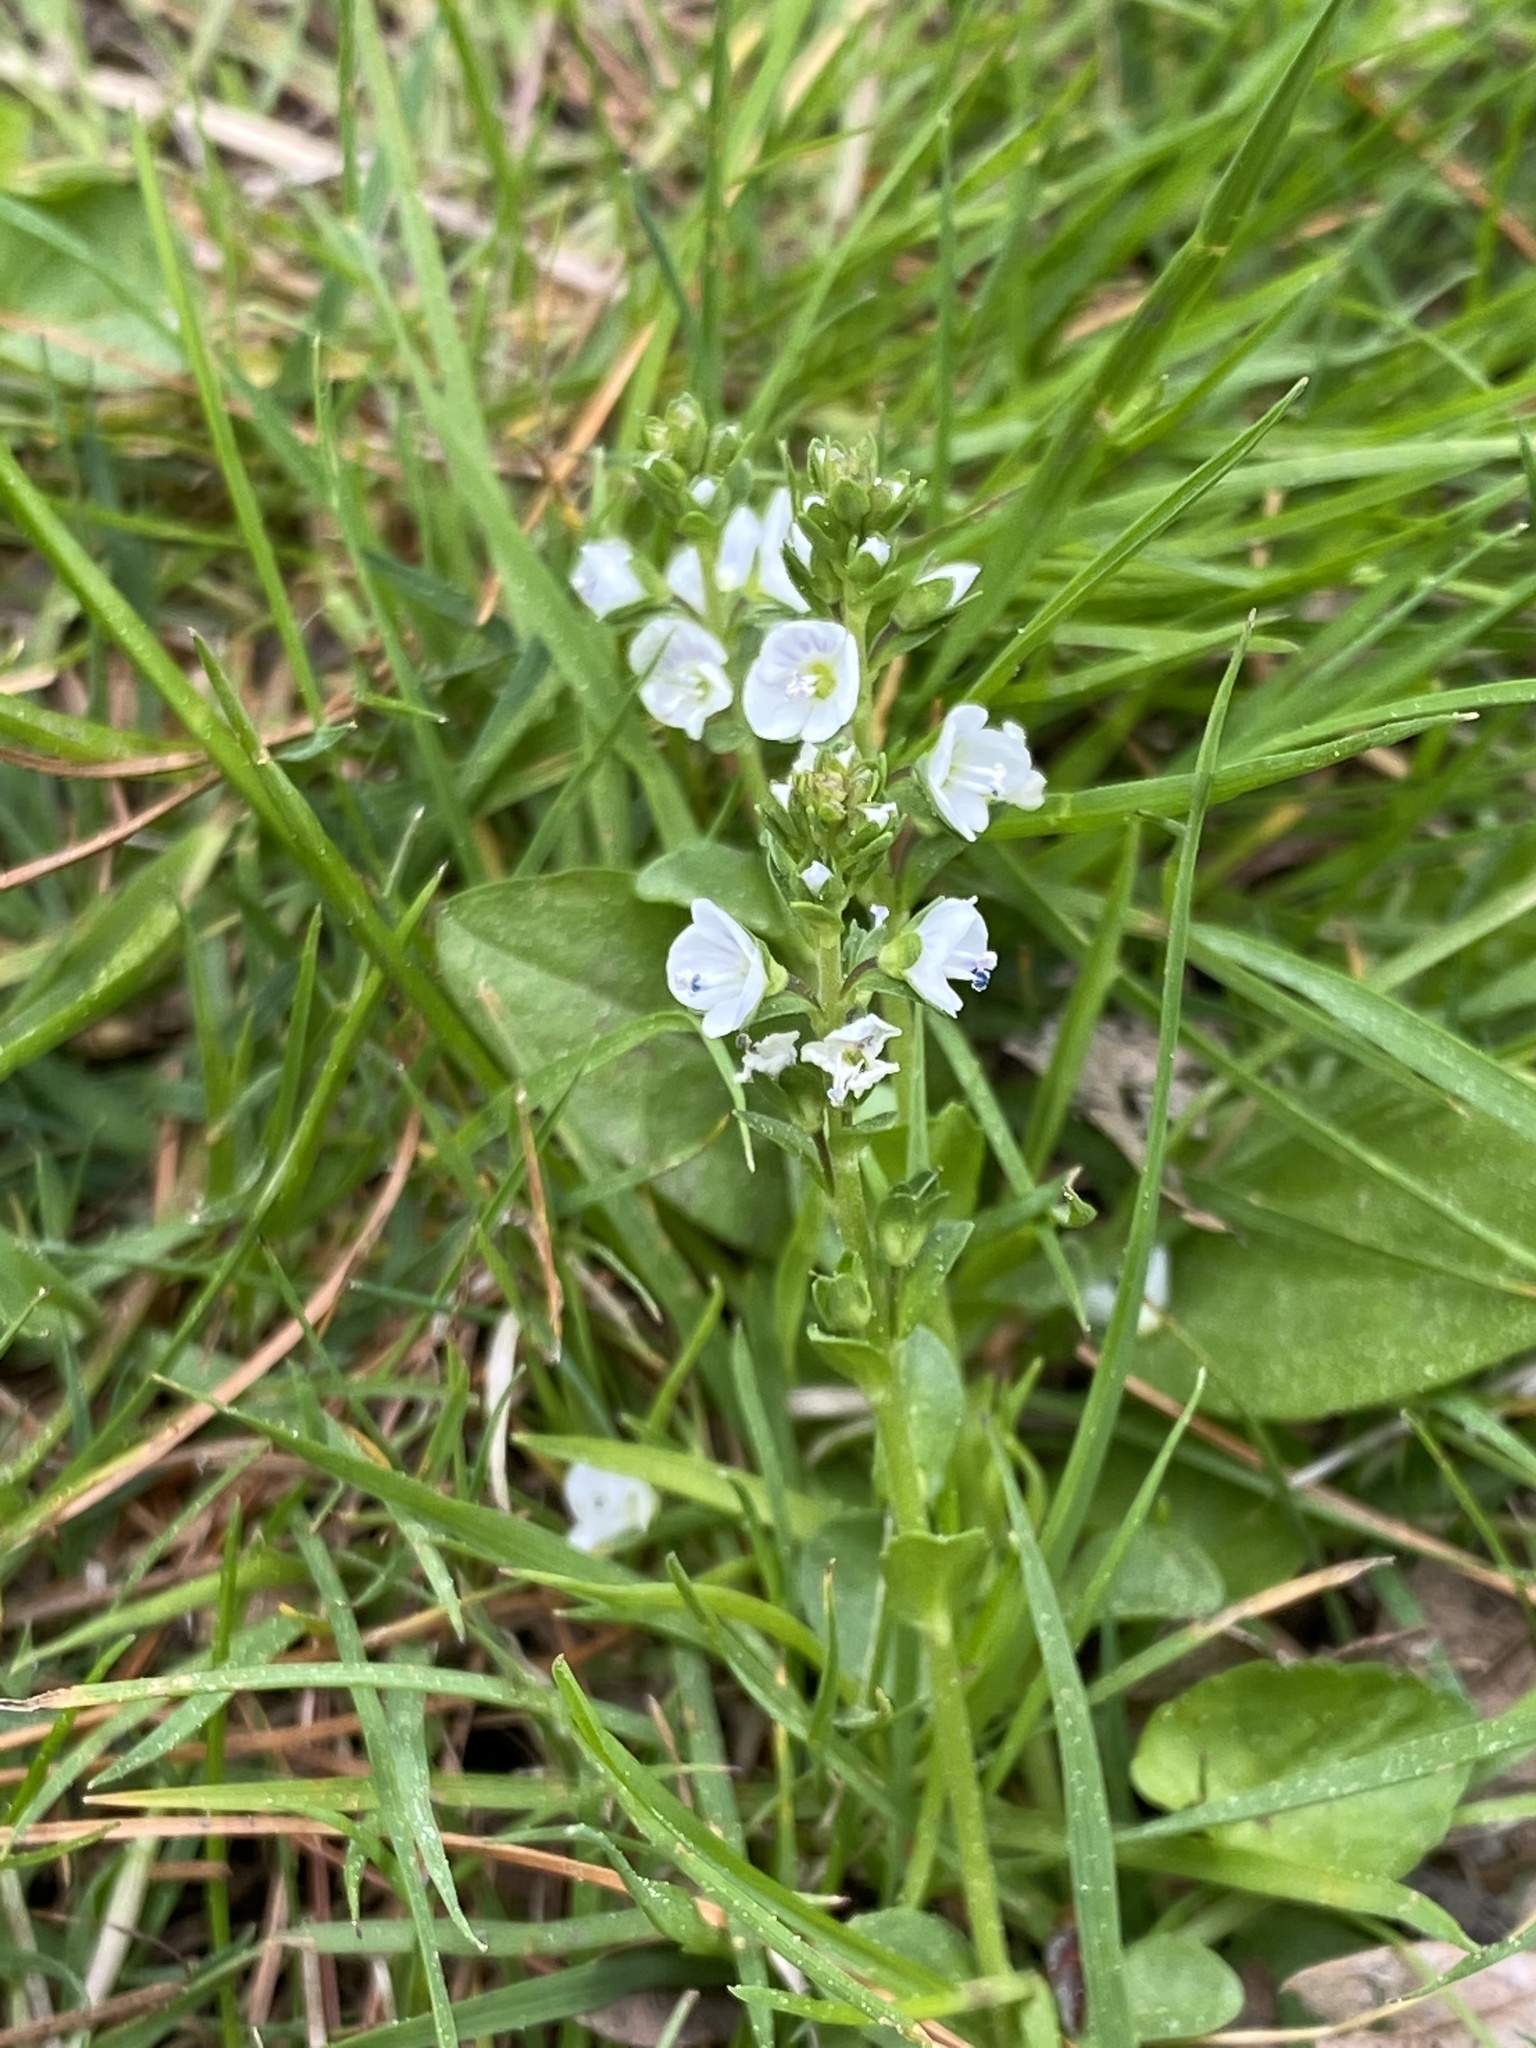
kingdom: Plantae
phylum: Tracheophyta
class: Magnoliopsida
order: Lamiales
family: Plantaginaceae
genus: Veronica
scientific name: Veronica serpyllifolia
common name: Thyme-leaved speedwell
